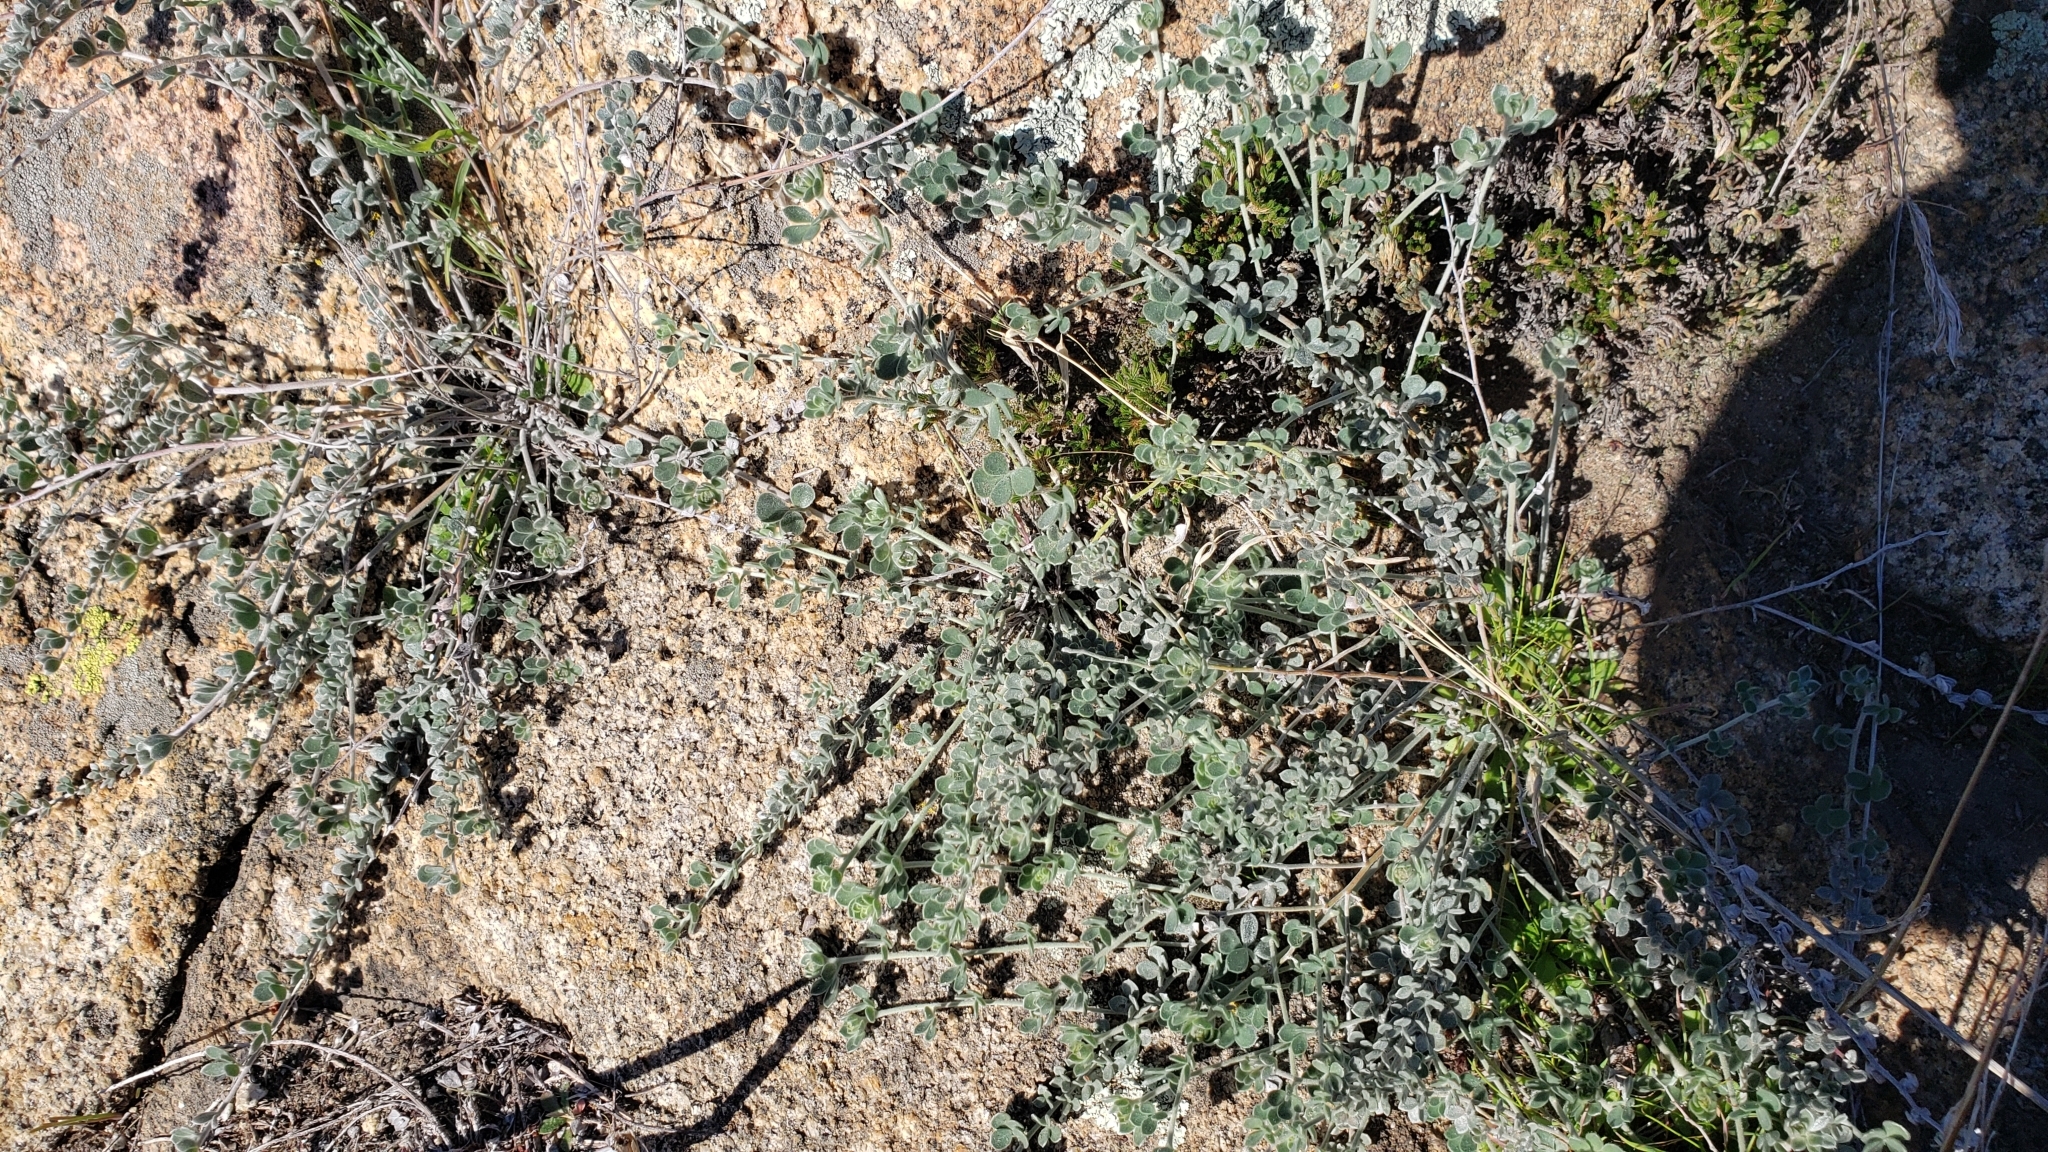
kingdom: Plantae
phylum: Tracheophyta
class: Magnoliopsida
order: Fabales
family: Fabaceae
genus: Acmispon
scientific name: Acmispon argophyllus
